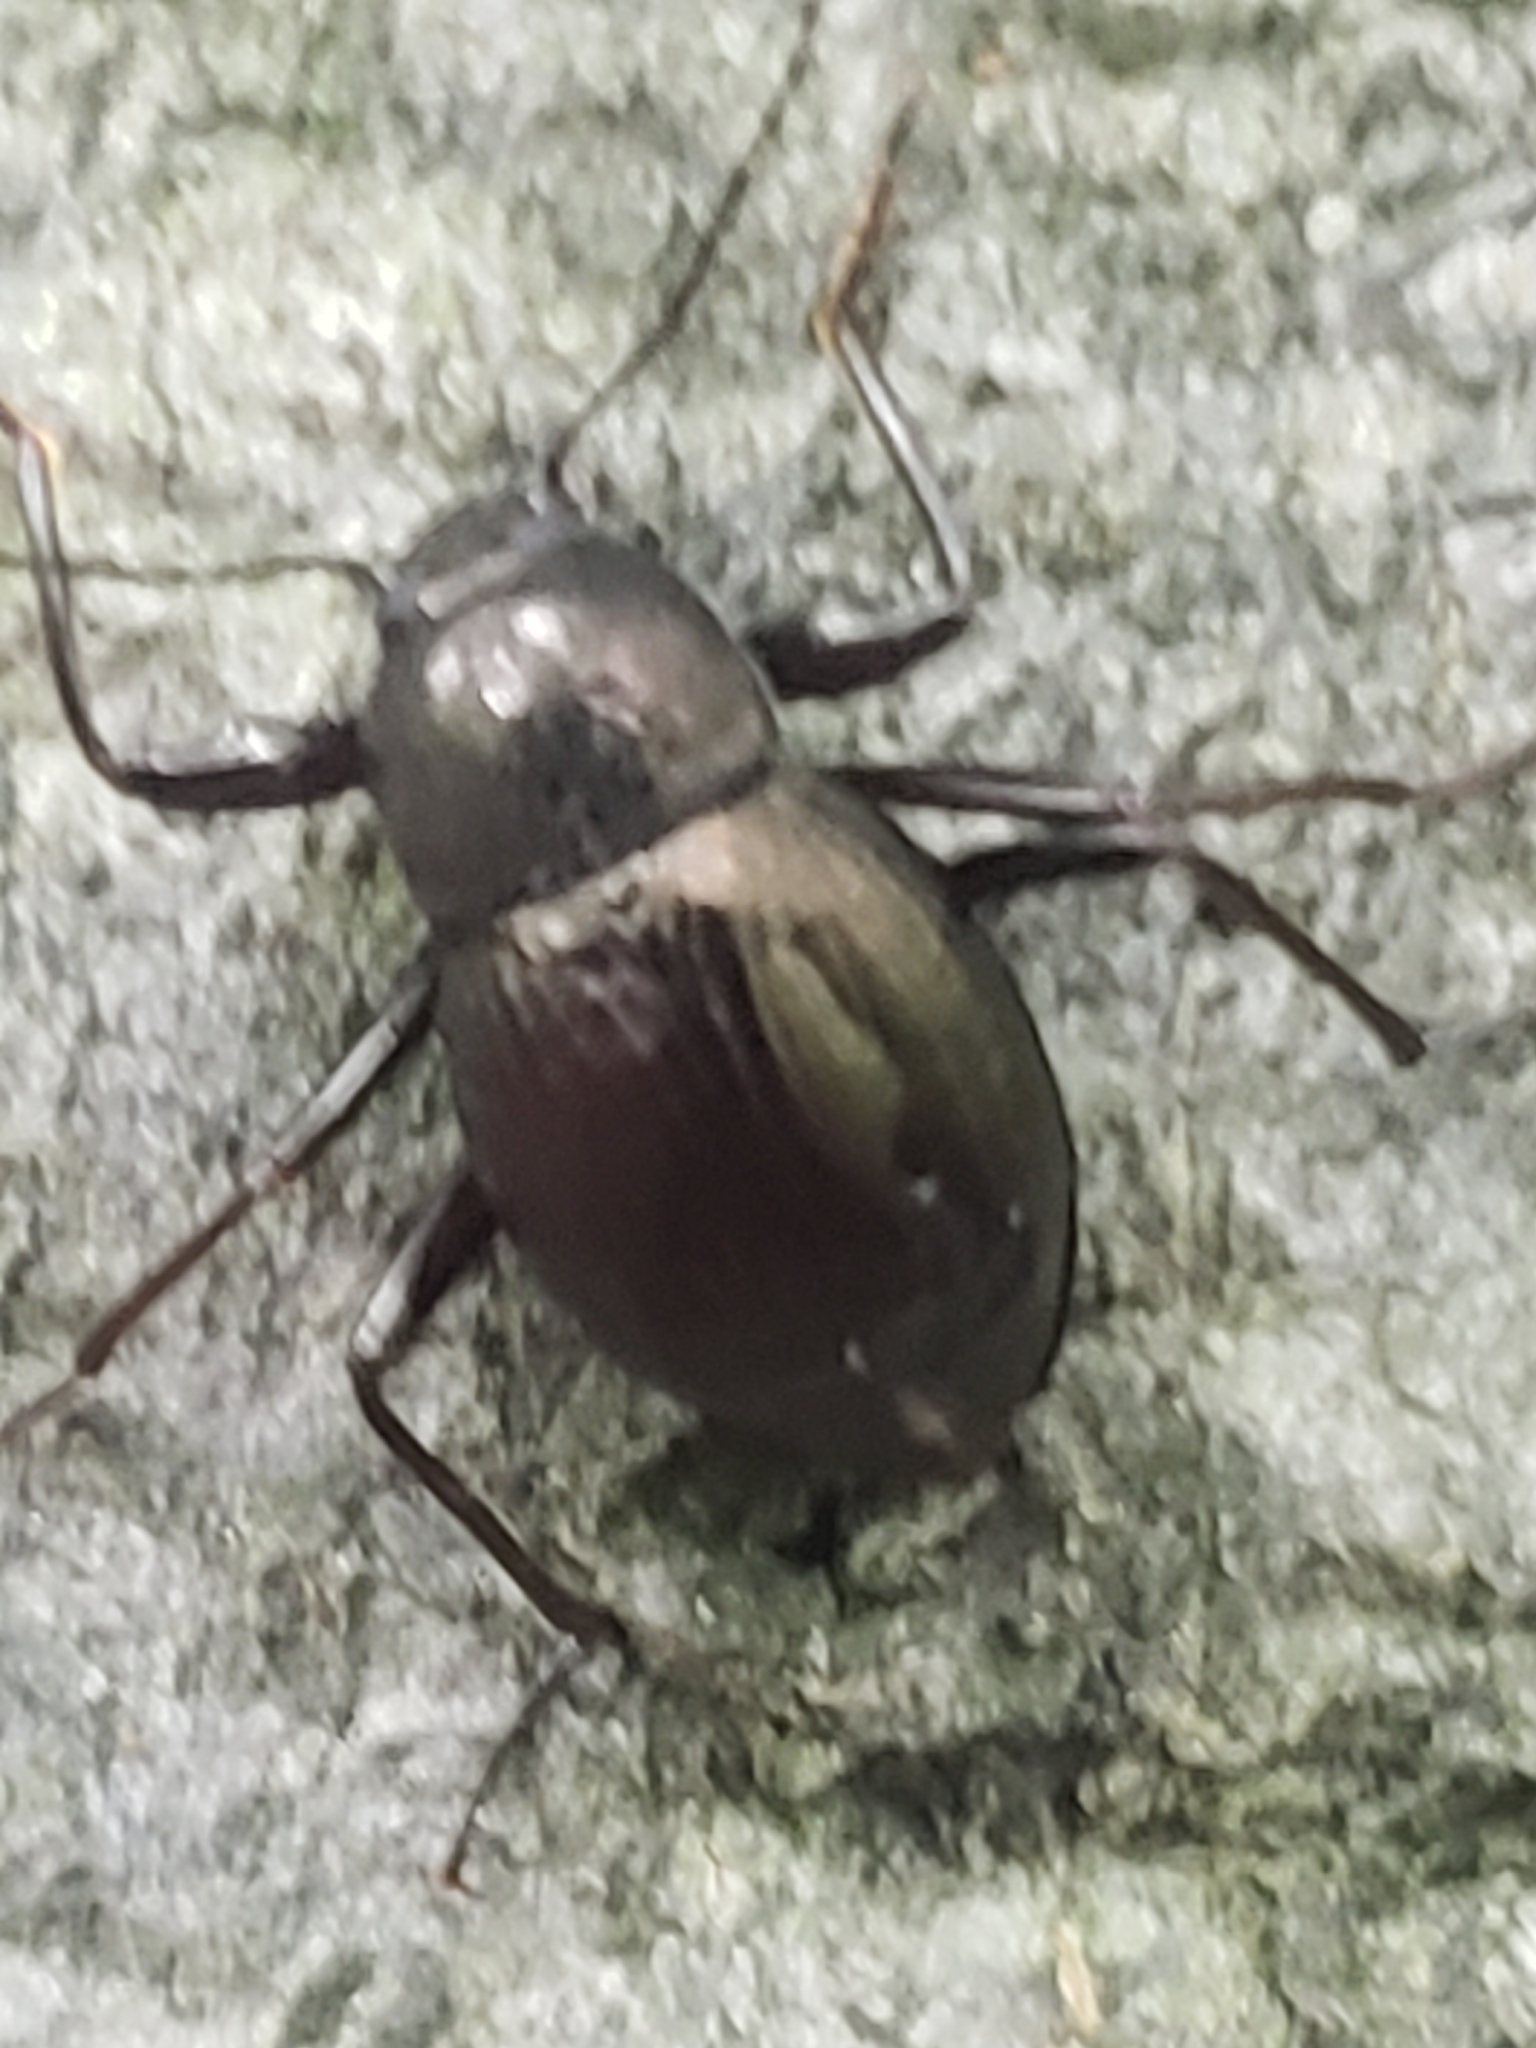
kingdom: Animalia
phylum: Arthropoda
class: Insecta
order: Coleoptera
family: Tenebrionidae
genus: Meracantha
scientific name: Meracantha contracta
